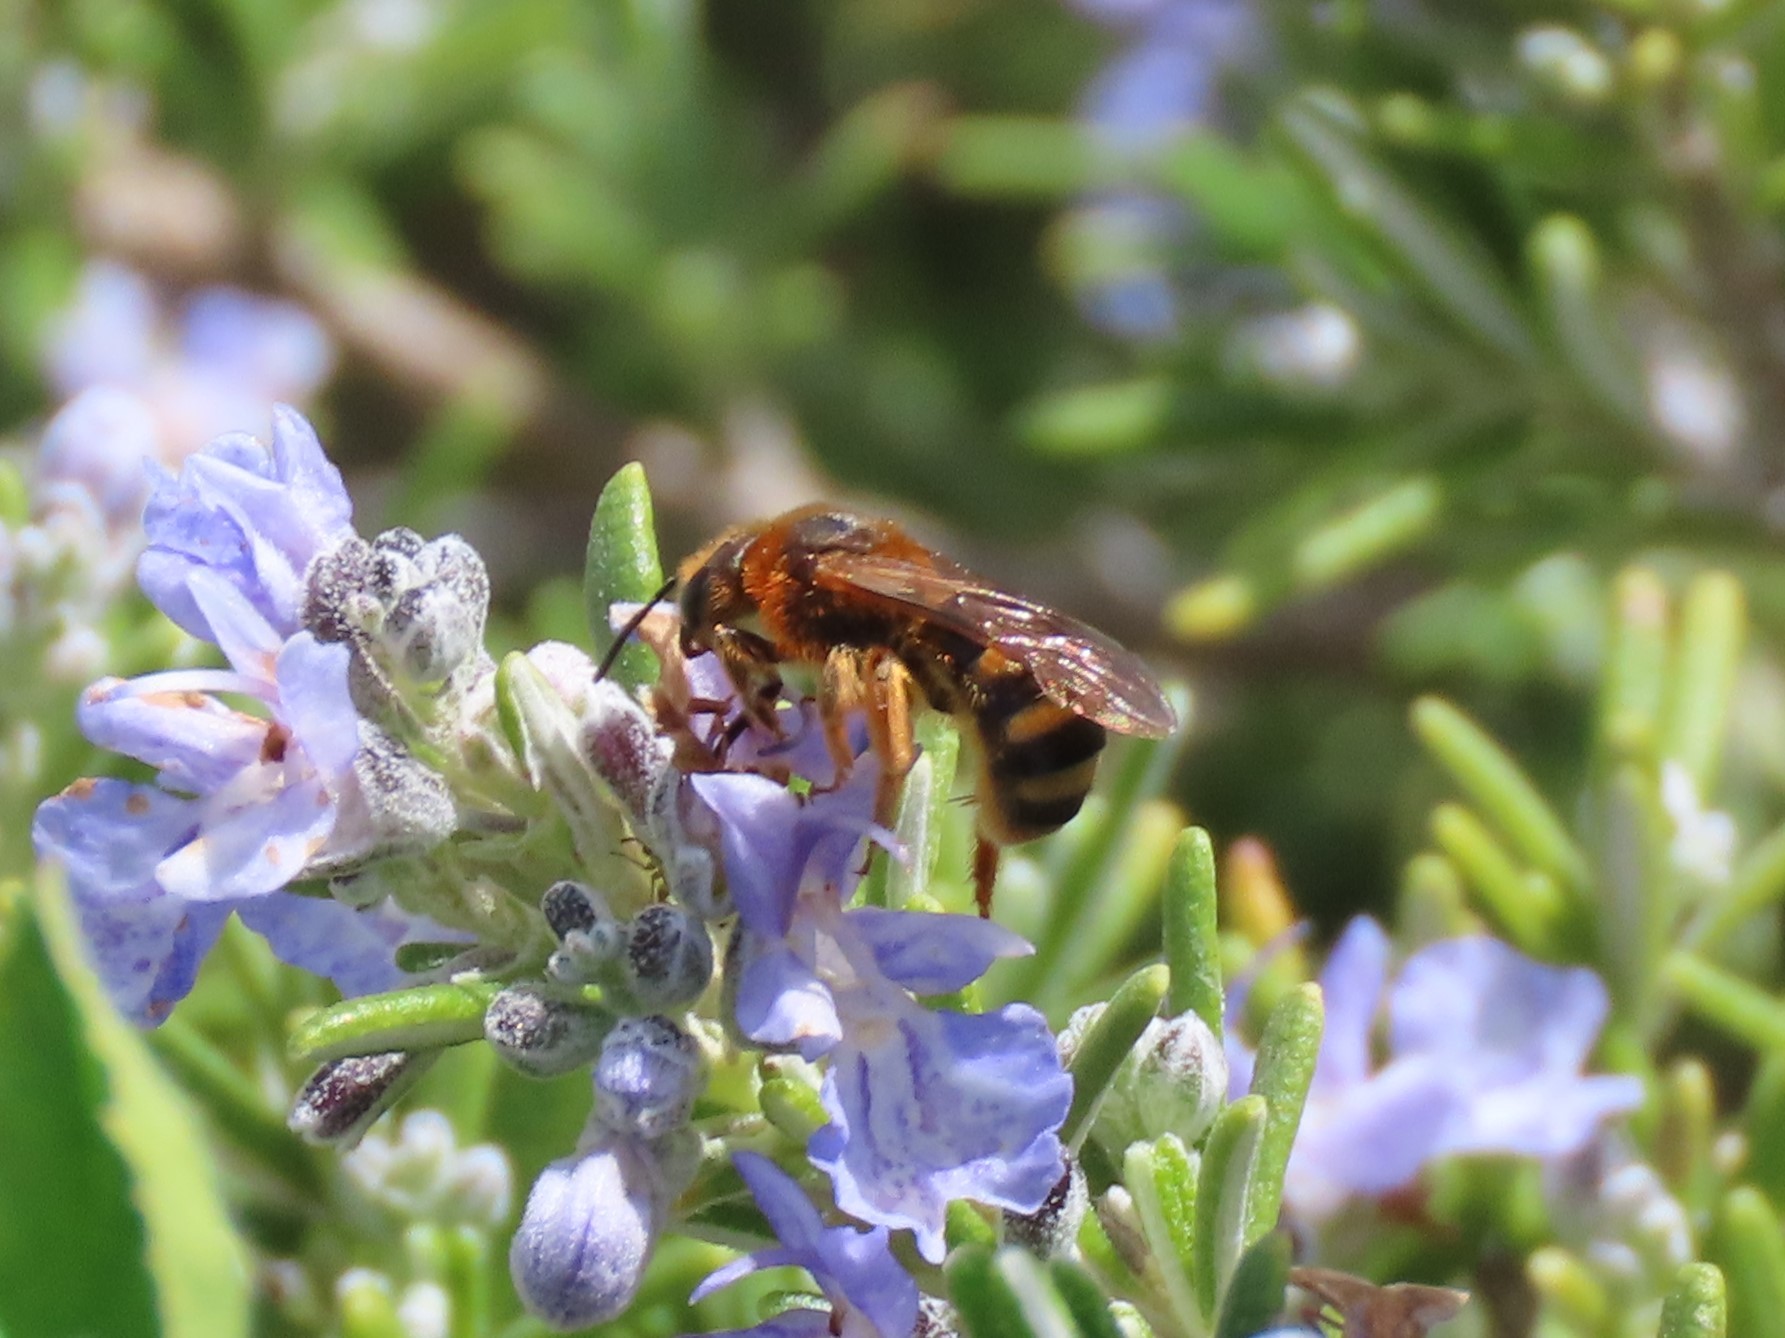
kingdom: Animalia
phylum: Arthropoda
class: Insecta
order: Hymenoptera
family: Halictidae
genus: Lasioglossum
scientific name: Lasioglossum xanthopus
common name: Orange-footed furrow bee
